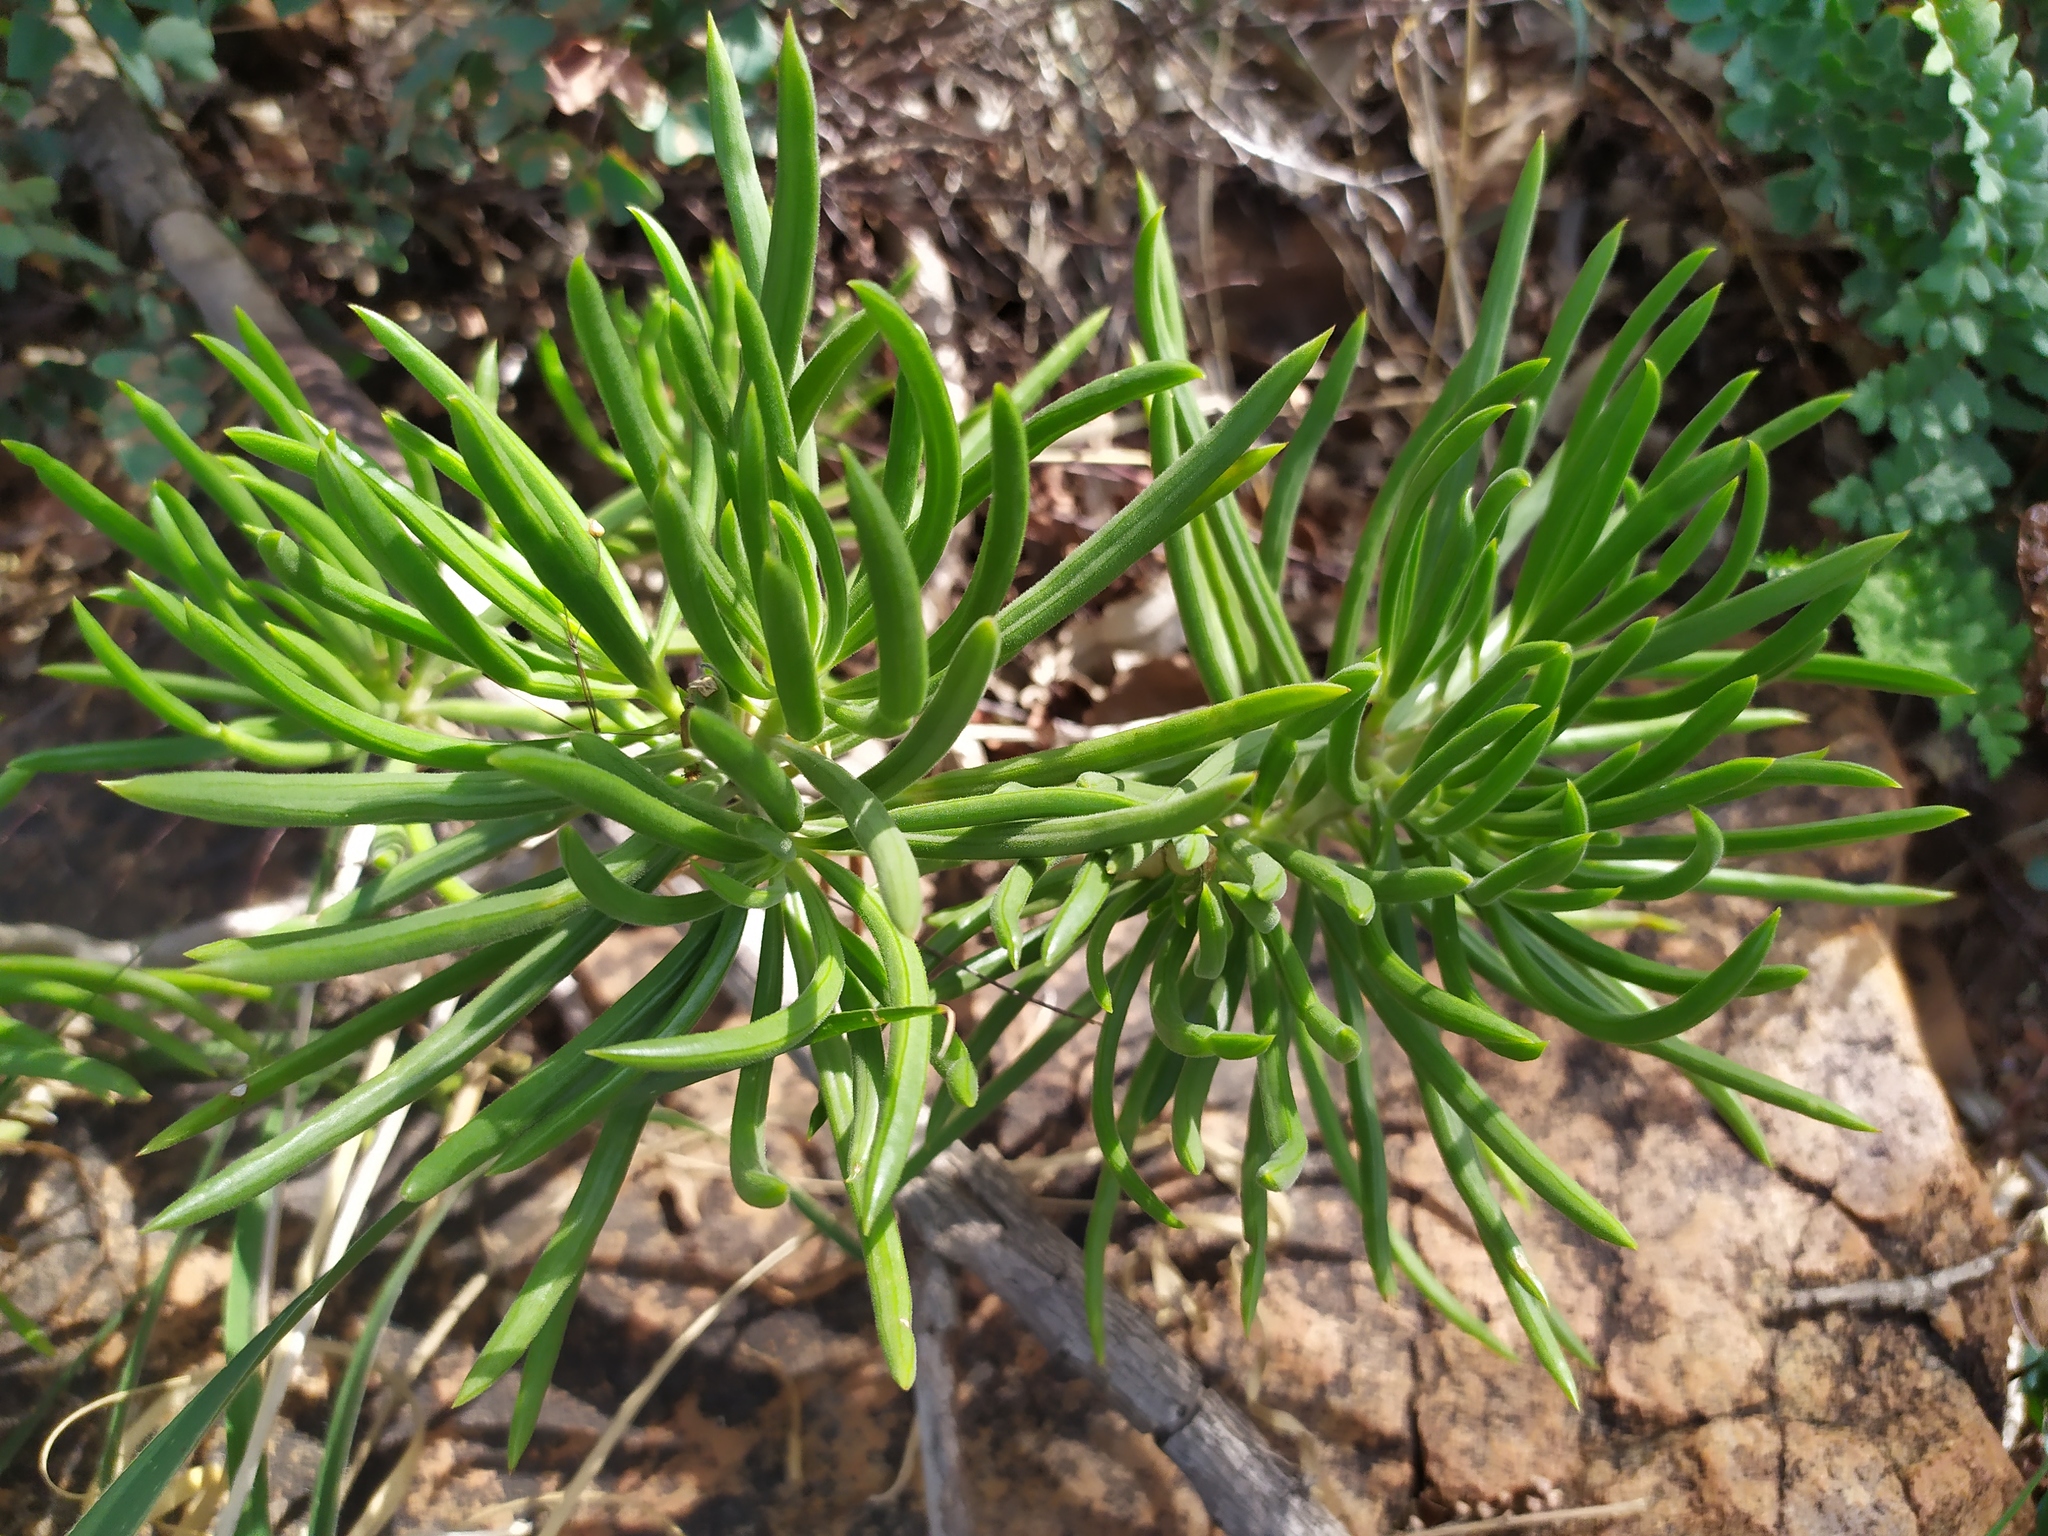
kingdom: Plantae
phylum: Tracheophyta
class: Magnoliopsida
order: Asterales
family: Asteraceae
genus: Kleinia
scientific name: Kleinia barbertonica
